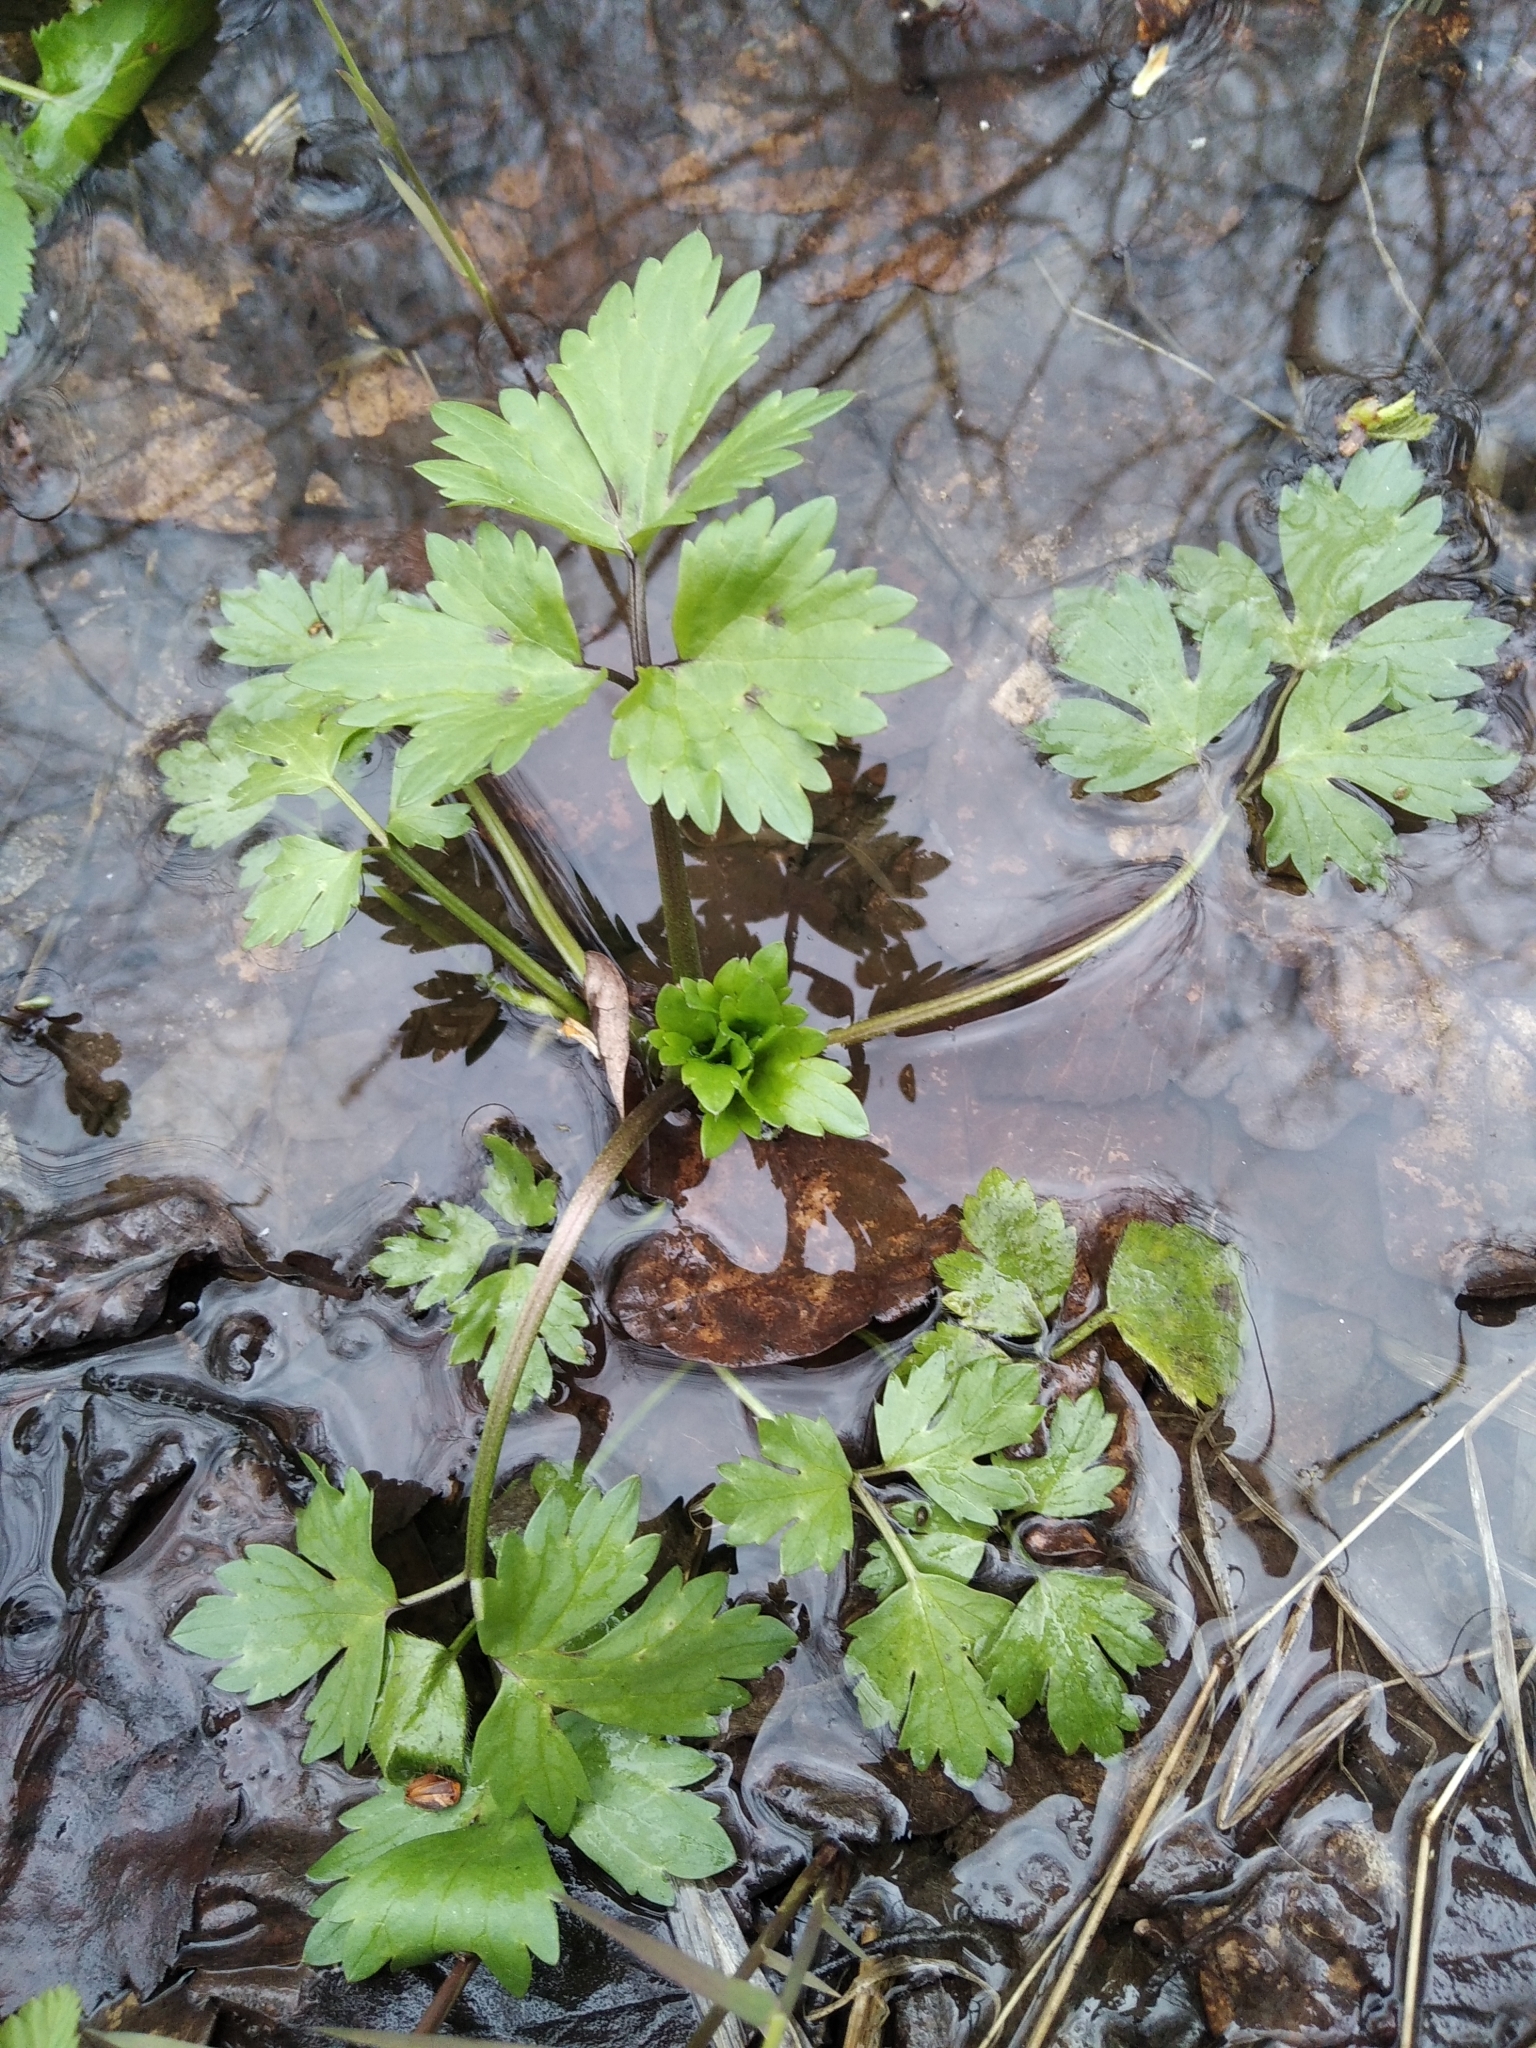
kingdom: Plantae
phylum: Tracheophyta
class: Magnoliopsida
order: Ranunculales
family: Ranunculaceae
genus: Ranunculus
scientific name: Ranunculus repens
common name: Creeping buttercup
